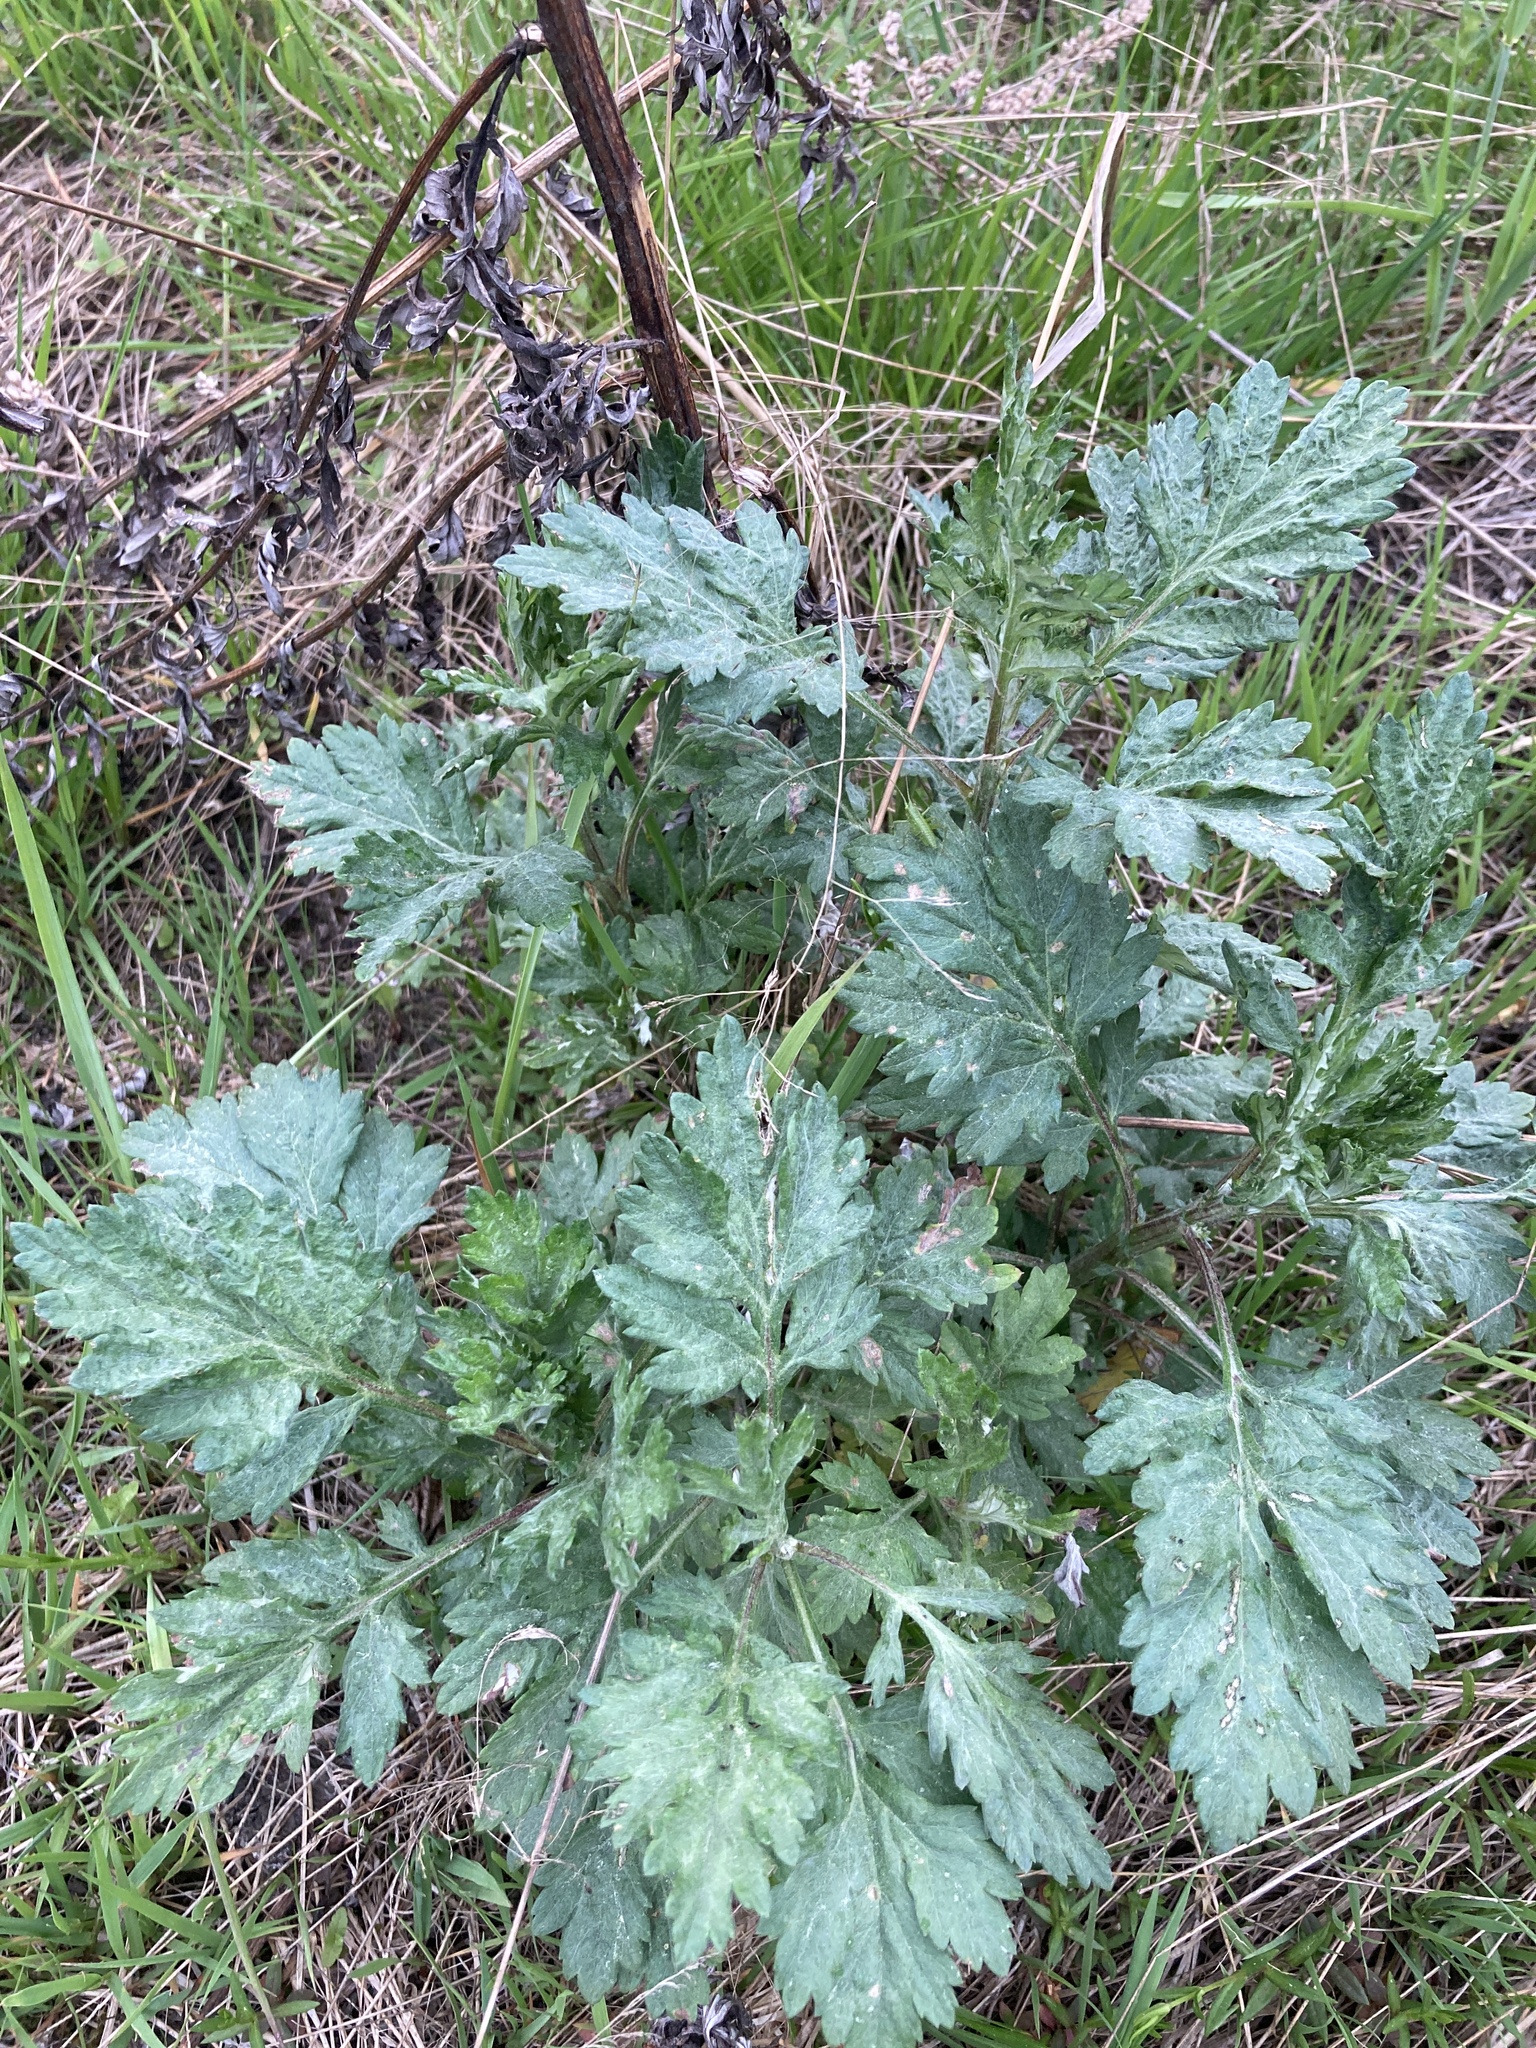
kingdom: Plantae
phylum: Tracheophyta
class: Magnoliopsida
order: Asterales
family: Asteraceae
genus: Artemisia
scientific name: Artemisia vulgaris
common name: Mugwort
